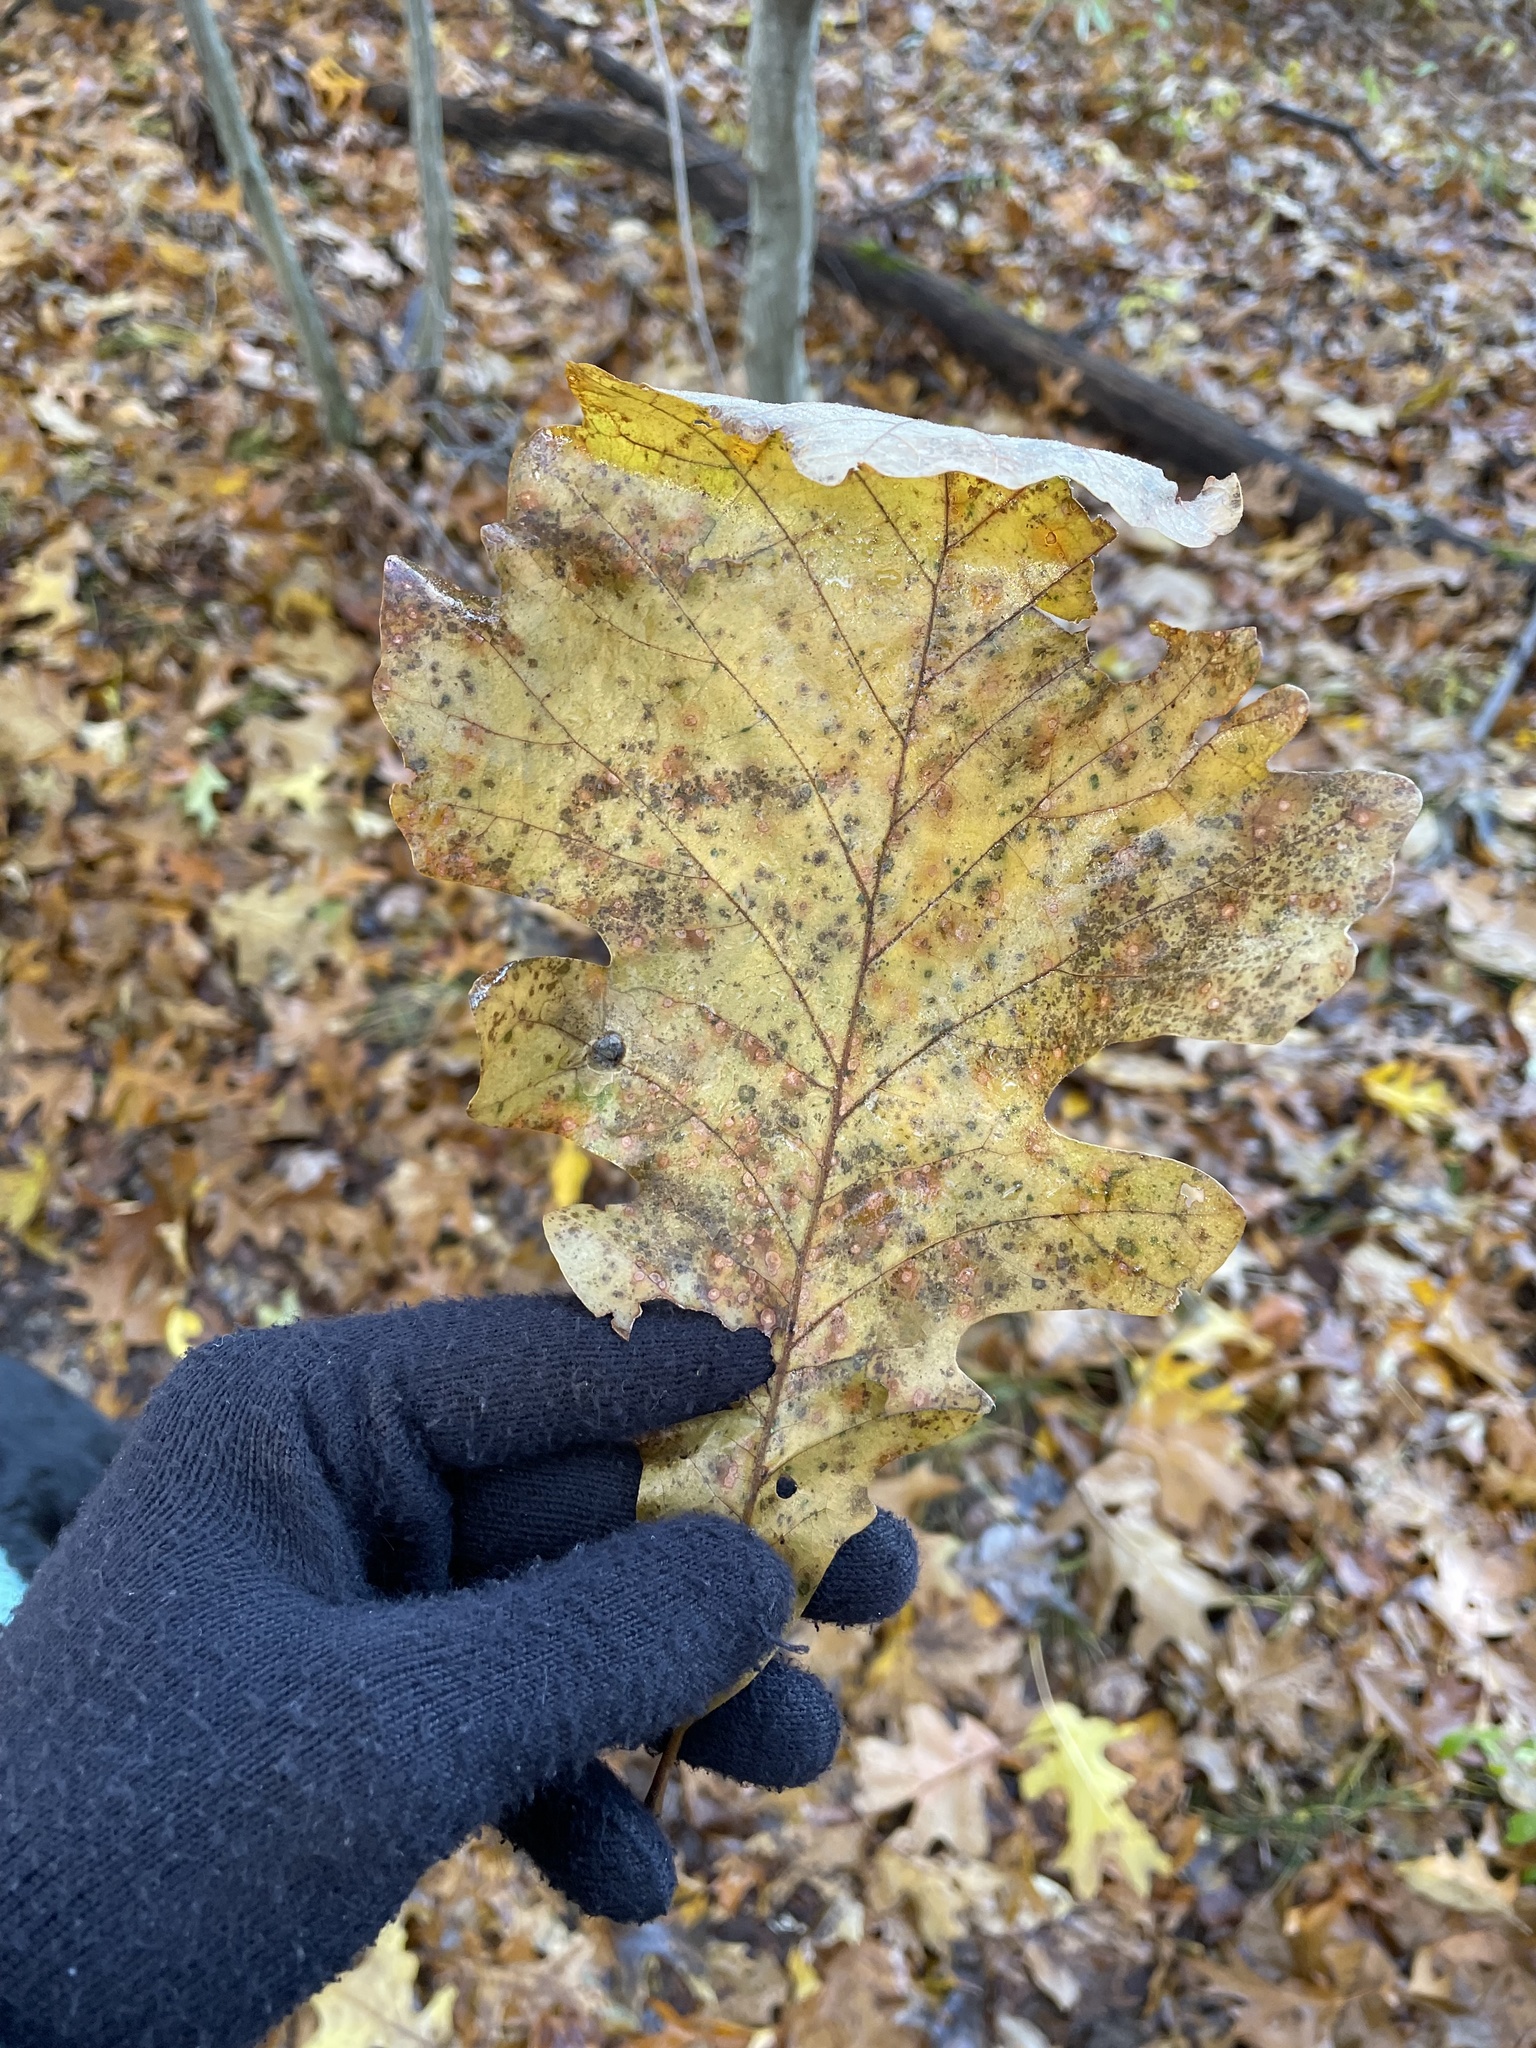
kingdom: Plantae
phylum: Tracheophyta
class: Magnoliopsida
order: Fagales
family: Fagaceae
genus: Quercus
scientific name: Quercus macrocarpa
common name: Bur oak
